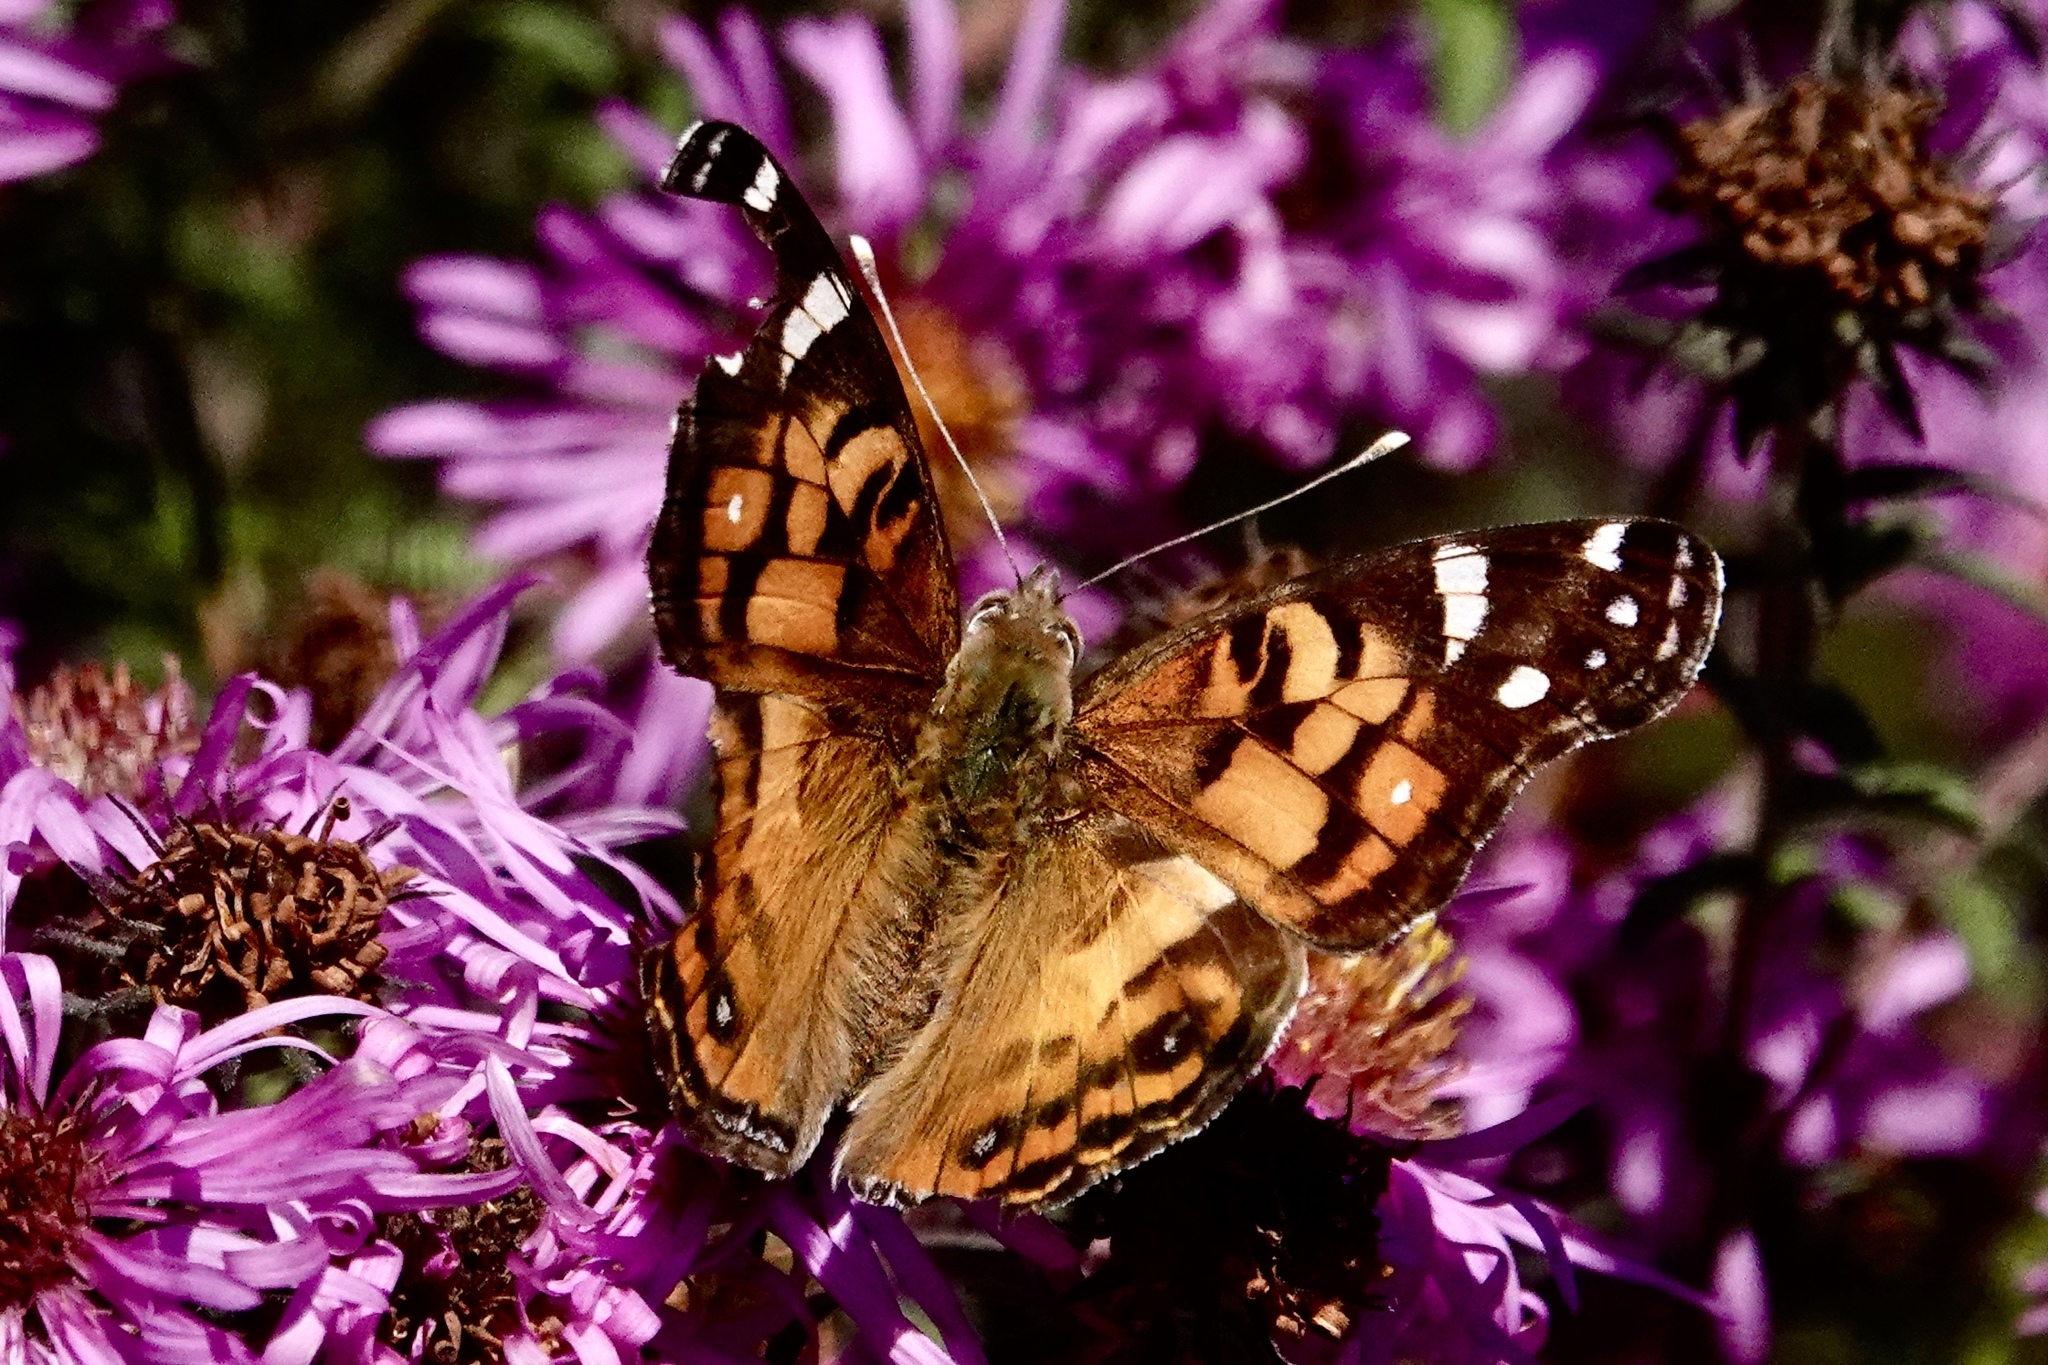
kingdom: Animalia
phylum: Arthropoda
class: Insecta
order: Lepidoptera
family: Nymphalidae
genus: Vanessa
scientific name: Vanessa virginiensis
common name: American lady
